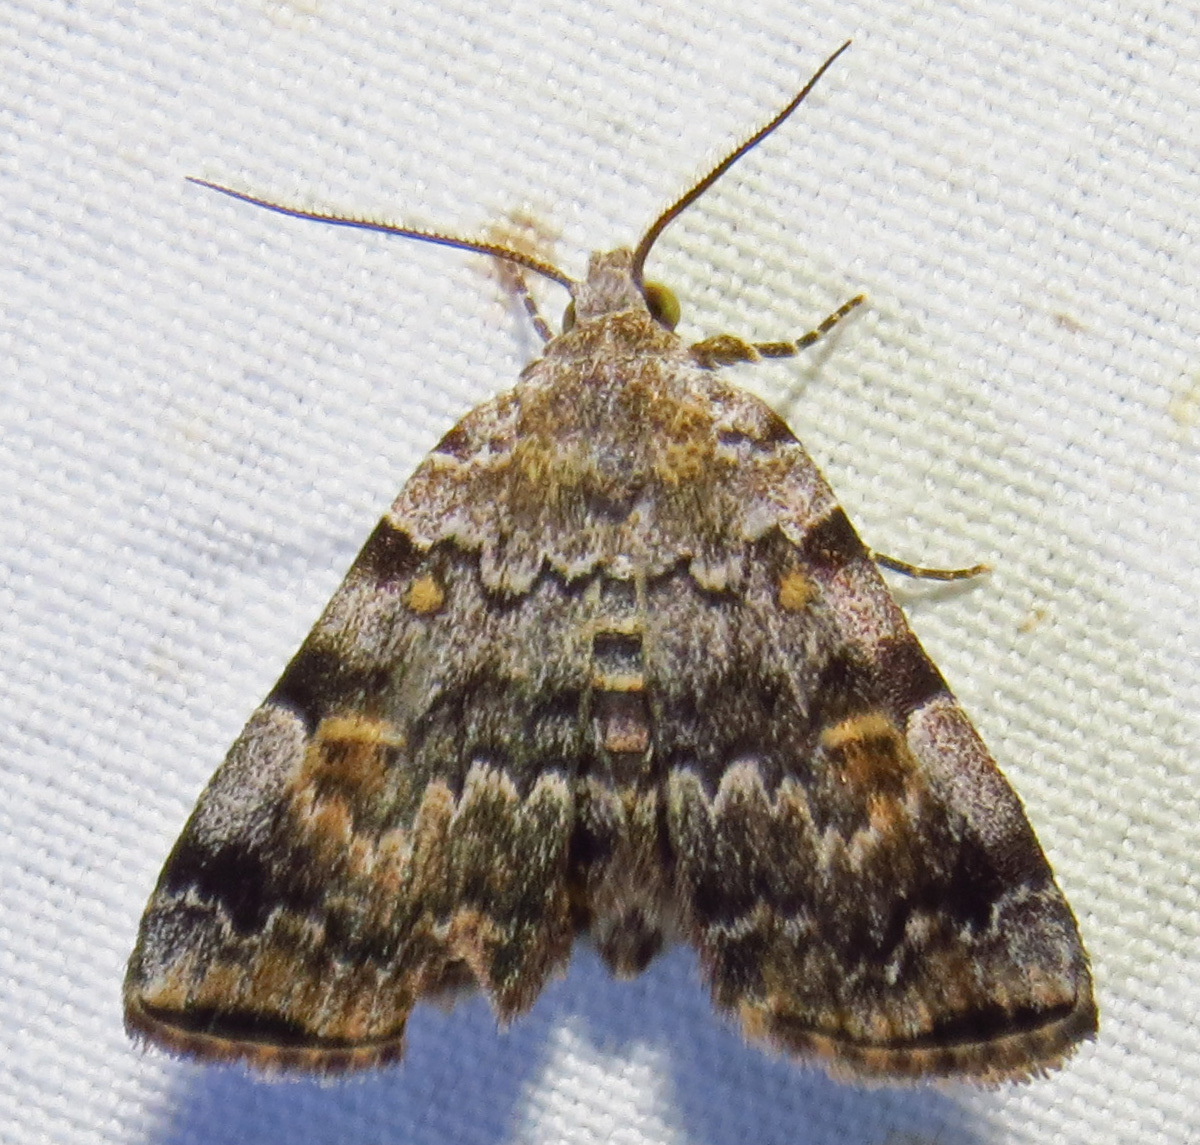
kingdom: Animalia
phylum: Arthropoda
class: Insecta
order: Lepidoptera
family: Erebidae
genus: Idia
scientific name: Idia americalis
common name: American idia moth
